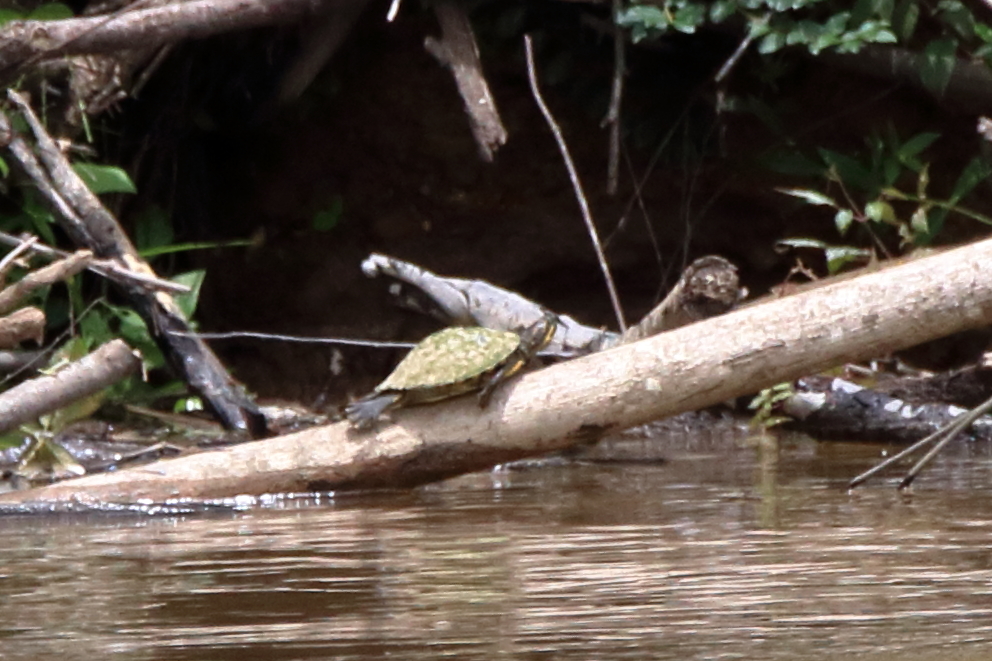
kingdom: Animalia
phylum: Chordata
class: Testudines
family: Emydidae
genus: Pseudemys
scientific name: Pseudemys concinna
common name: Eastern river cooter
